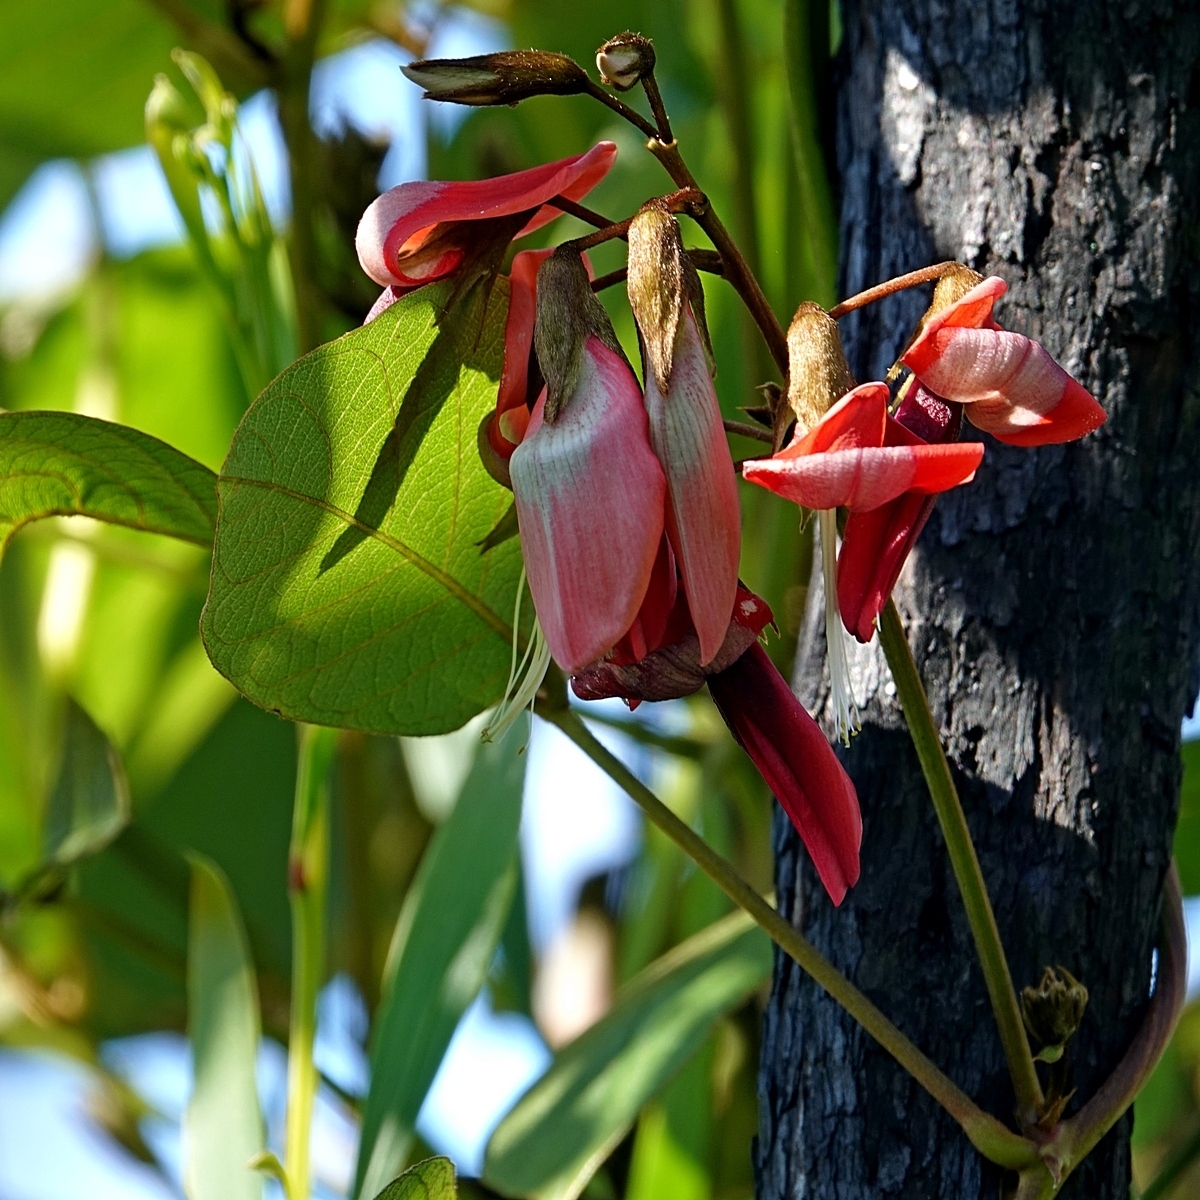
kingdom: Plantae
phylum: Tracheophyta
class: Magnoliopsida
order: Fabales
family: Fabaceae
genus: Kennedia
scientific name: Kennedia rubicunda
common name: Red kennedy-pea
